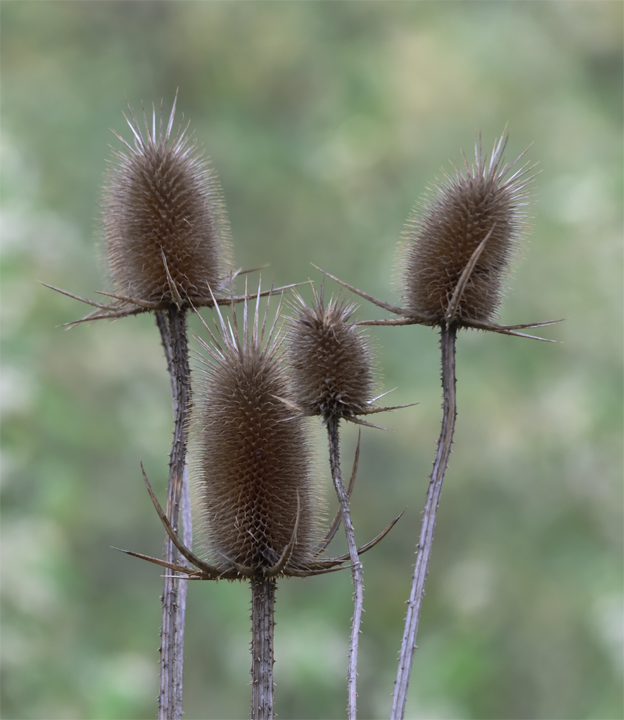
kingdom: Plantae
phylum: Tracheophyta
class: Magnoliopsida
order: Dipsacales
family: Caprifoliaceae
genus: Dipsacus
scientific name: Dipsacus laciniatus
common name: Cut-leaved teasel
